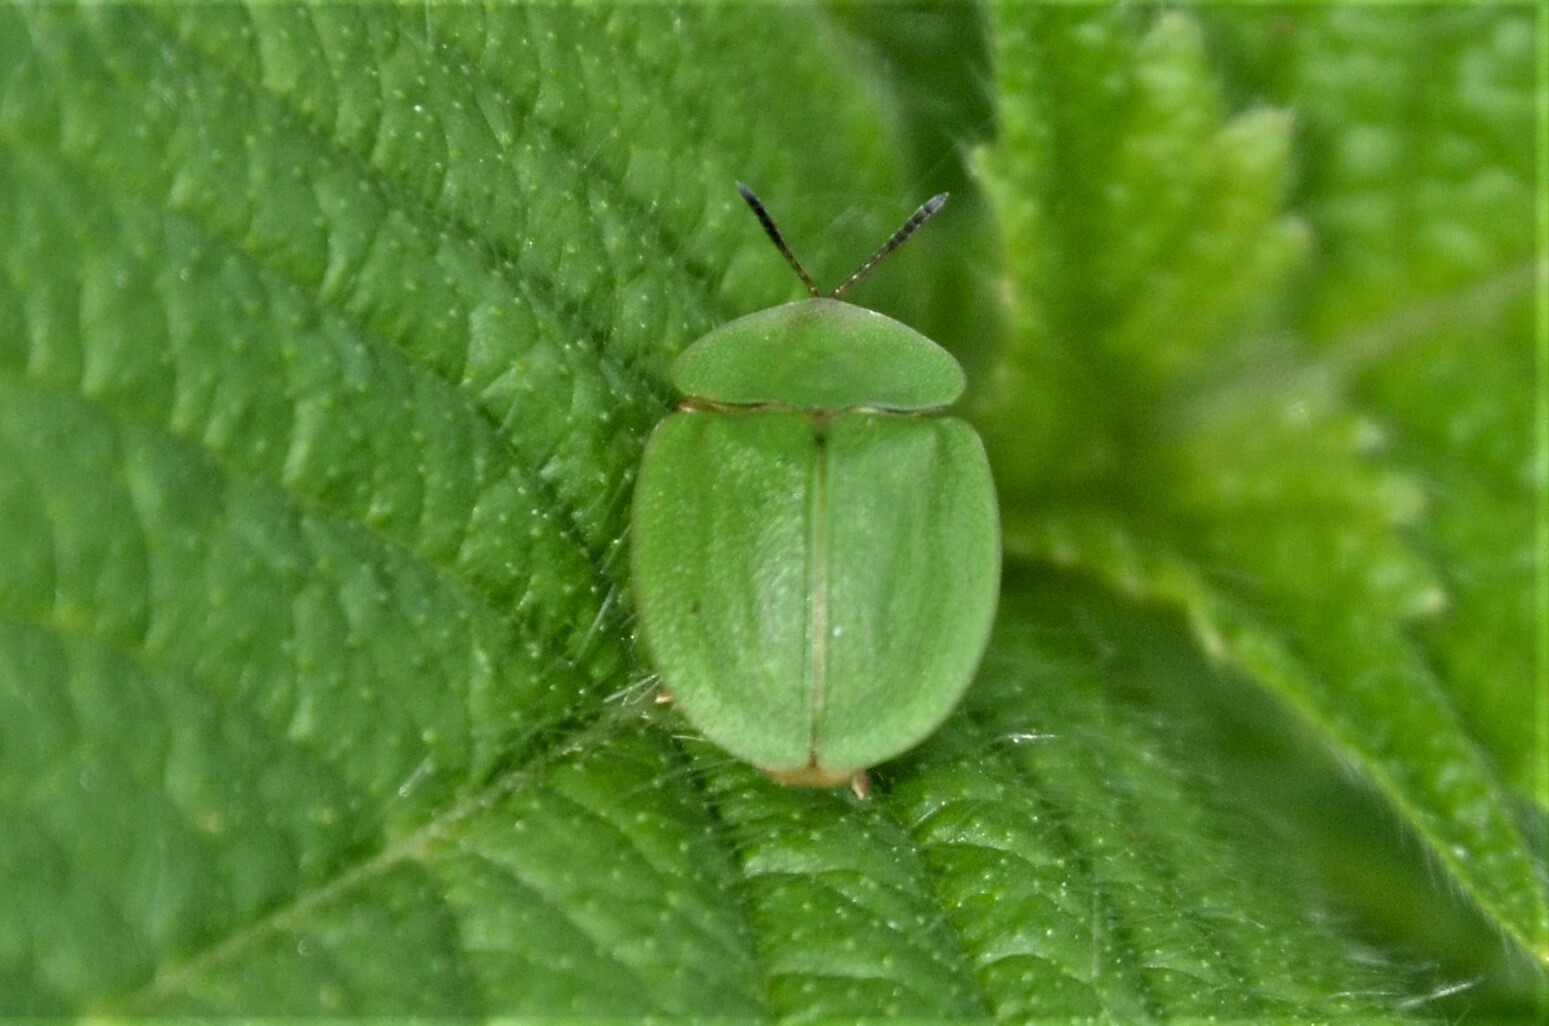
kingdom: Animalia
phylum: Arthropoda
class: Insecta
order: Coleoptera
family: Chrysomelidae
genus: Cassida
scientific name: Cassida viridis
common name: Green tortoise beetle
